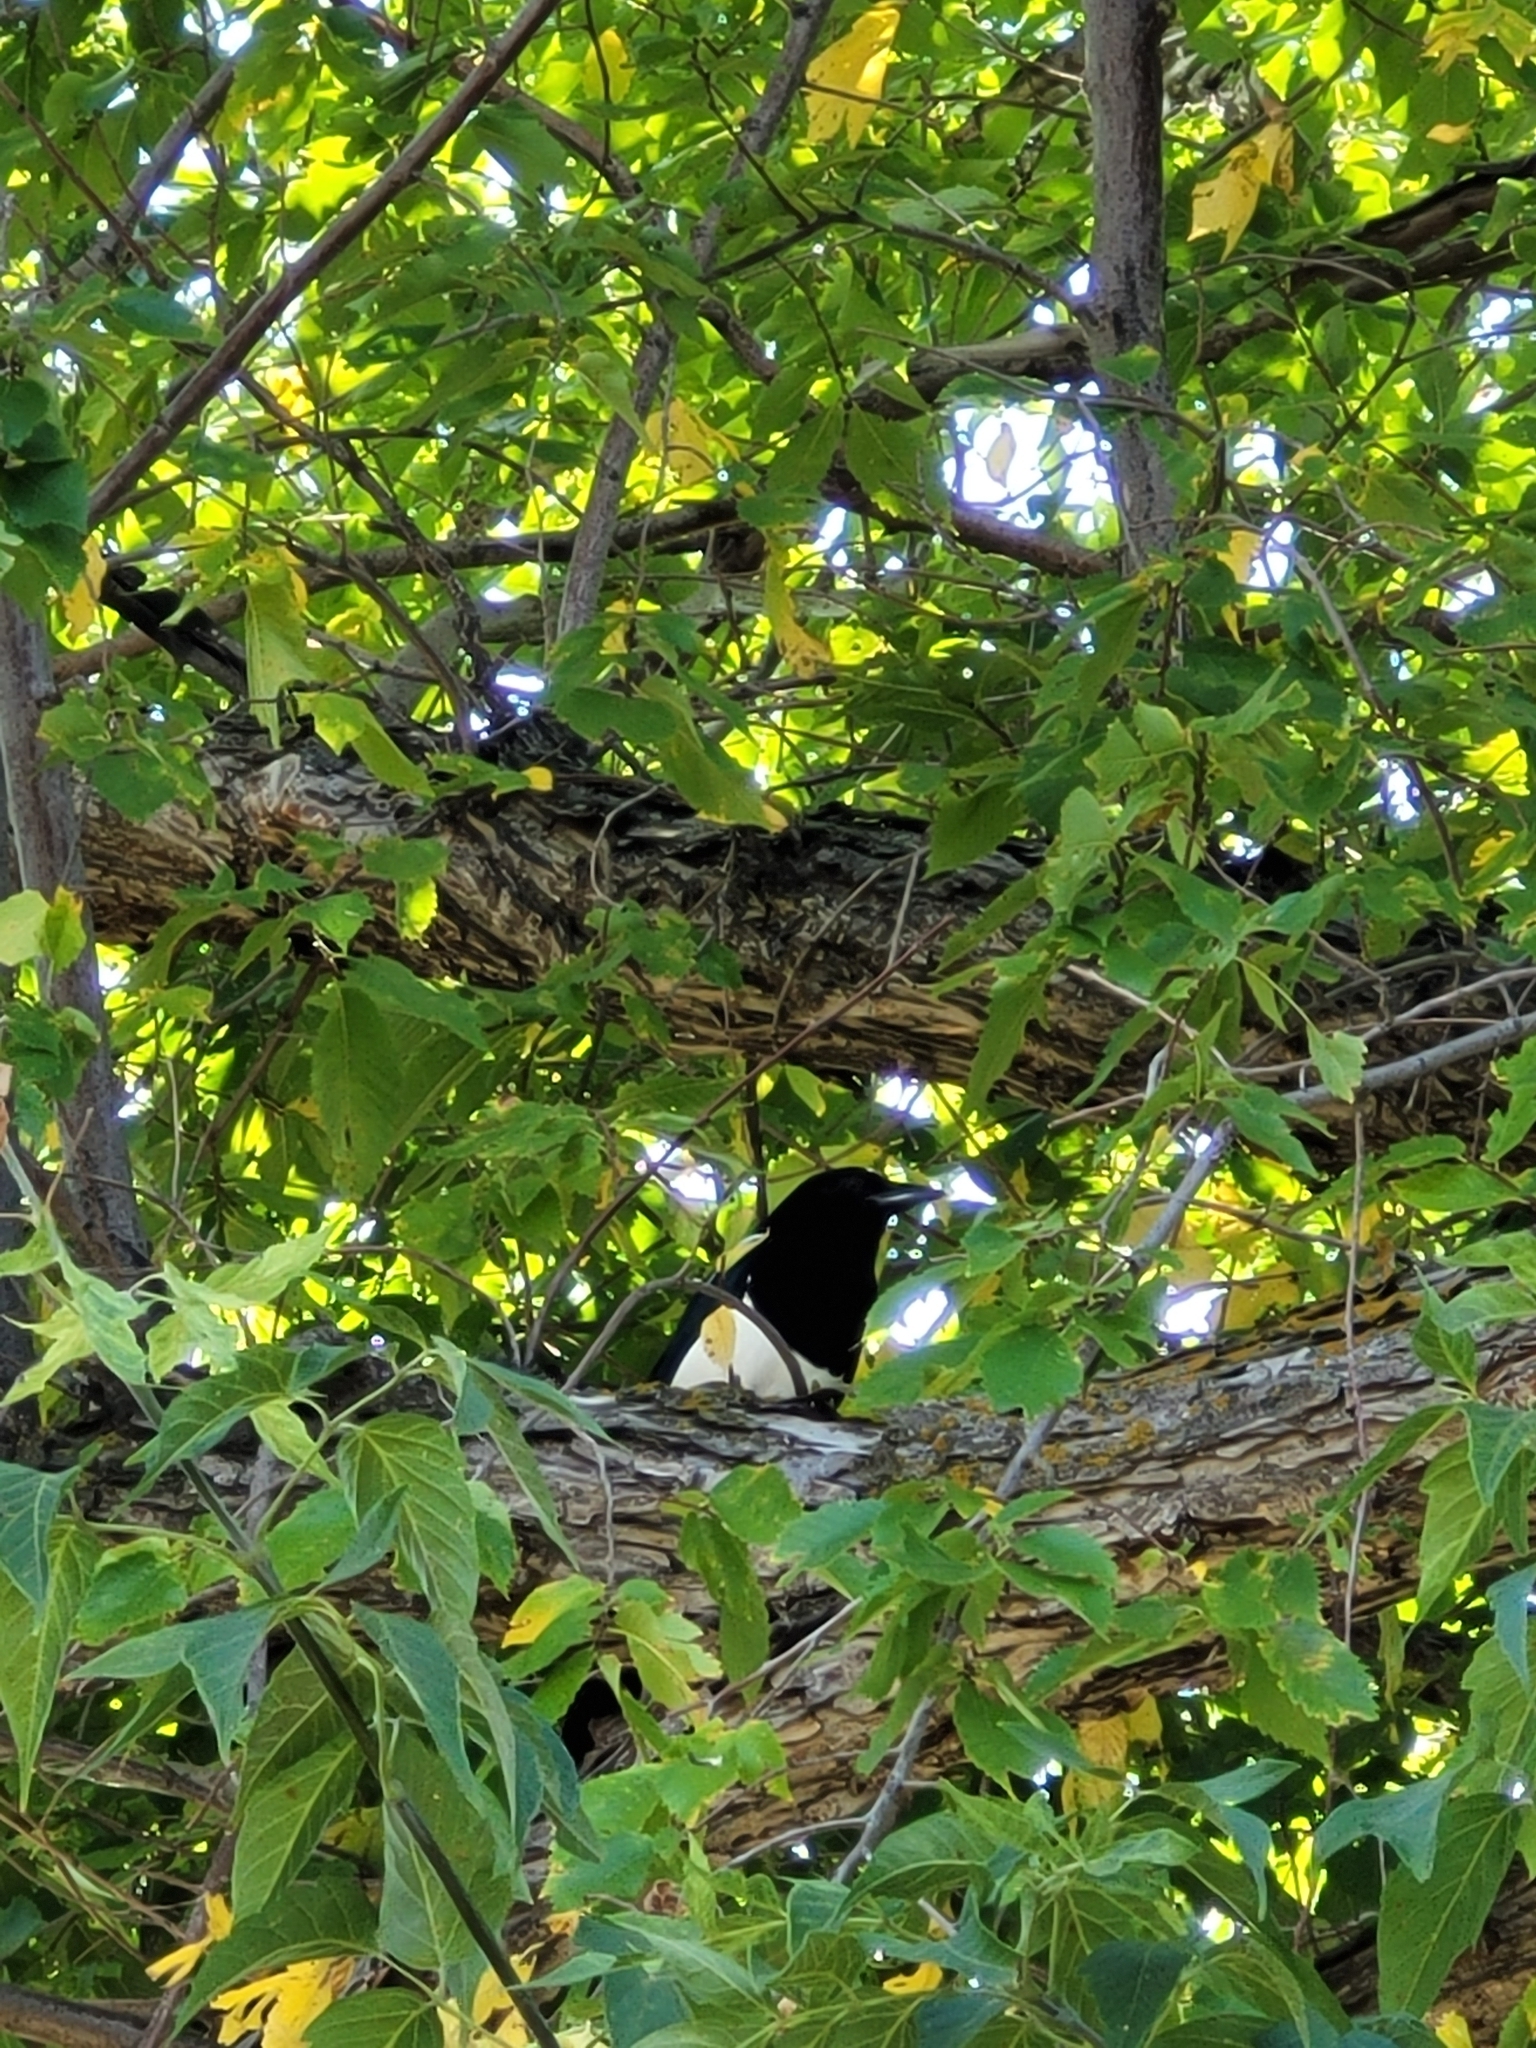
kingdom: Animalia
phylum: Chordata
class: Aves
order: Passeriformes
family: Corvidae
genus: Pica
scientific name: Pica hudsonia
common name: Black-billed magpie
